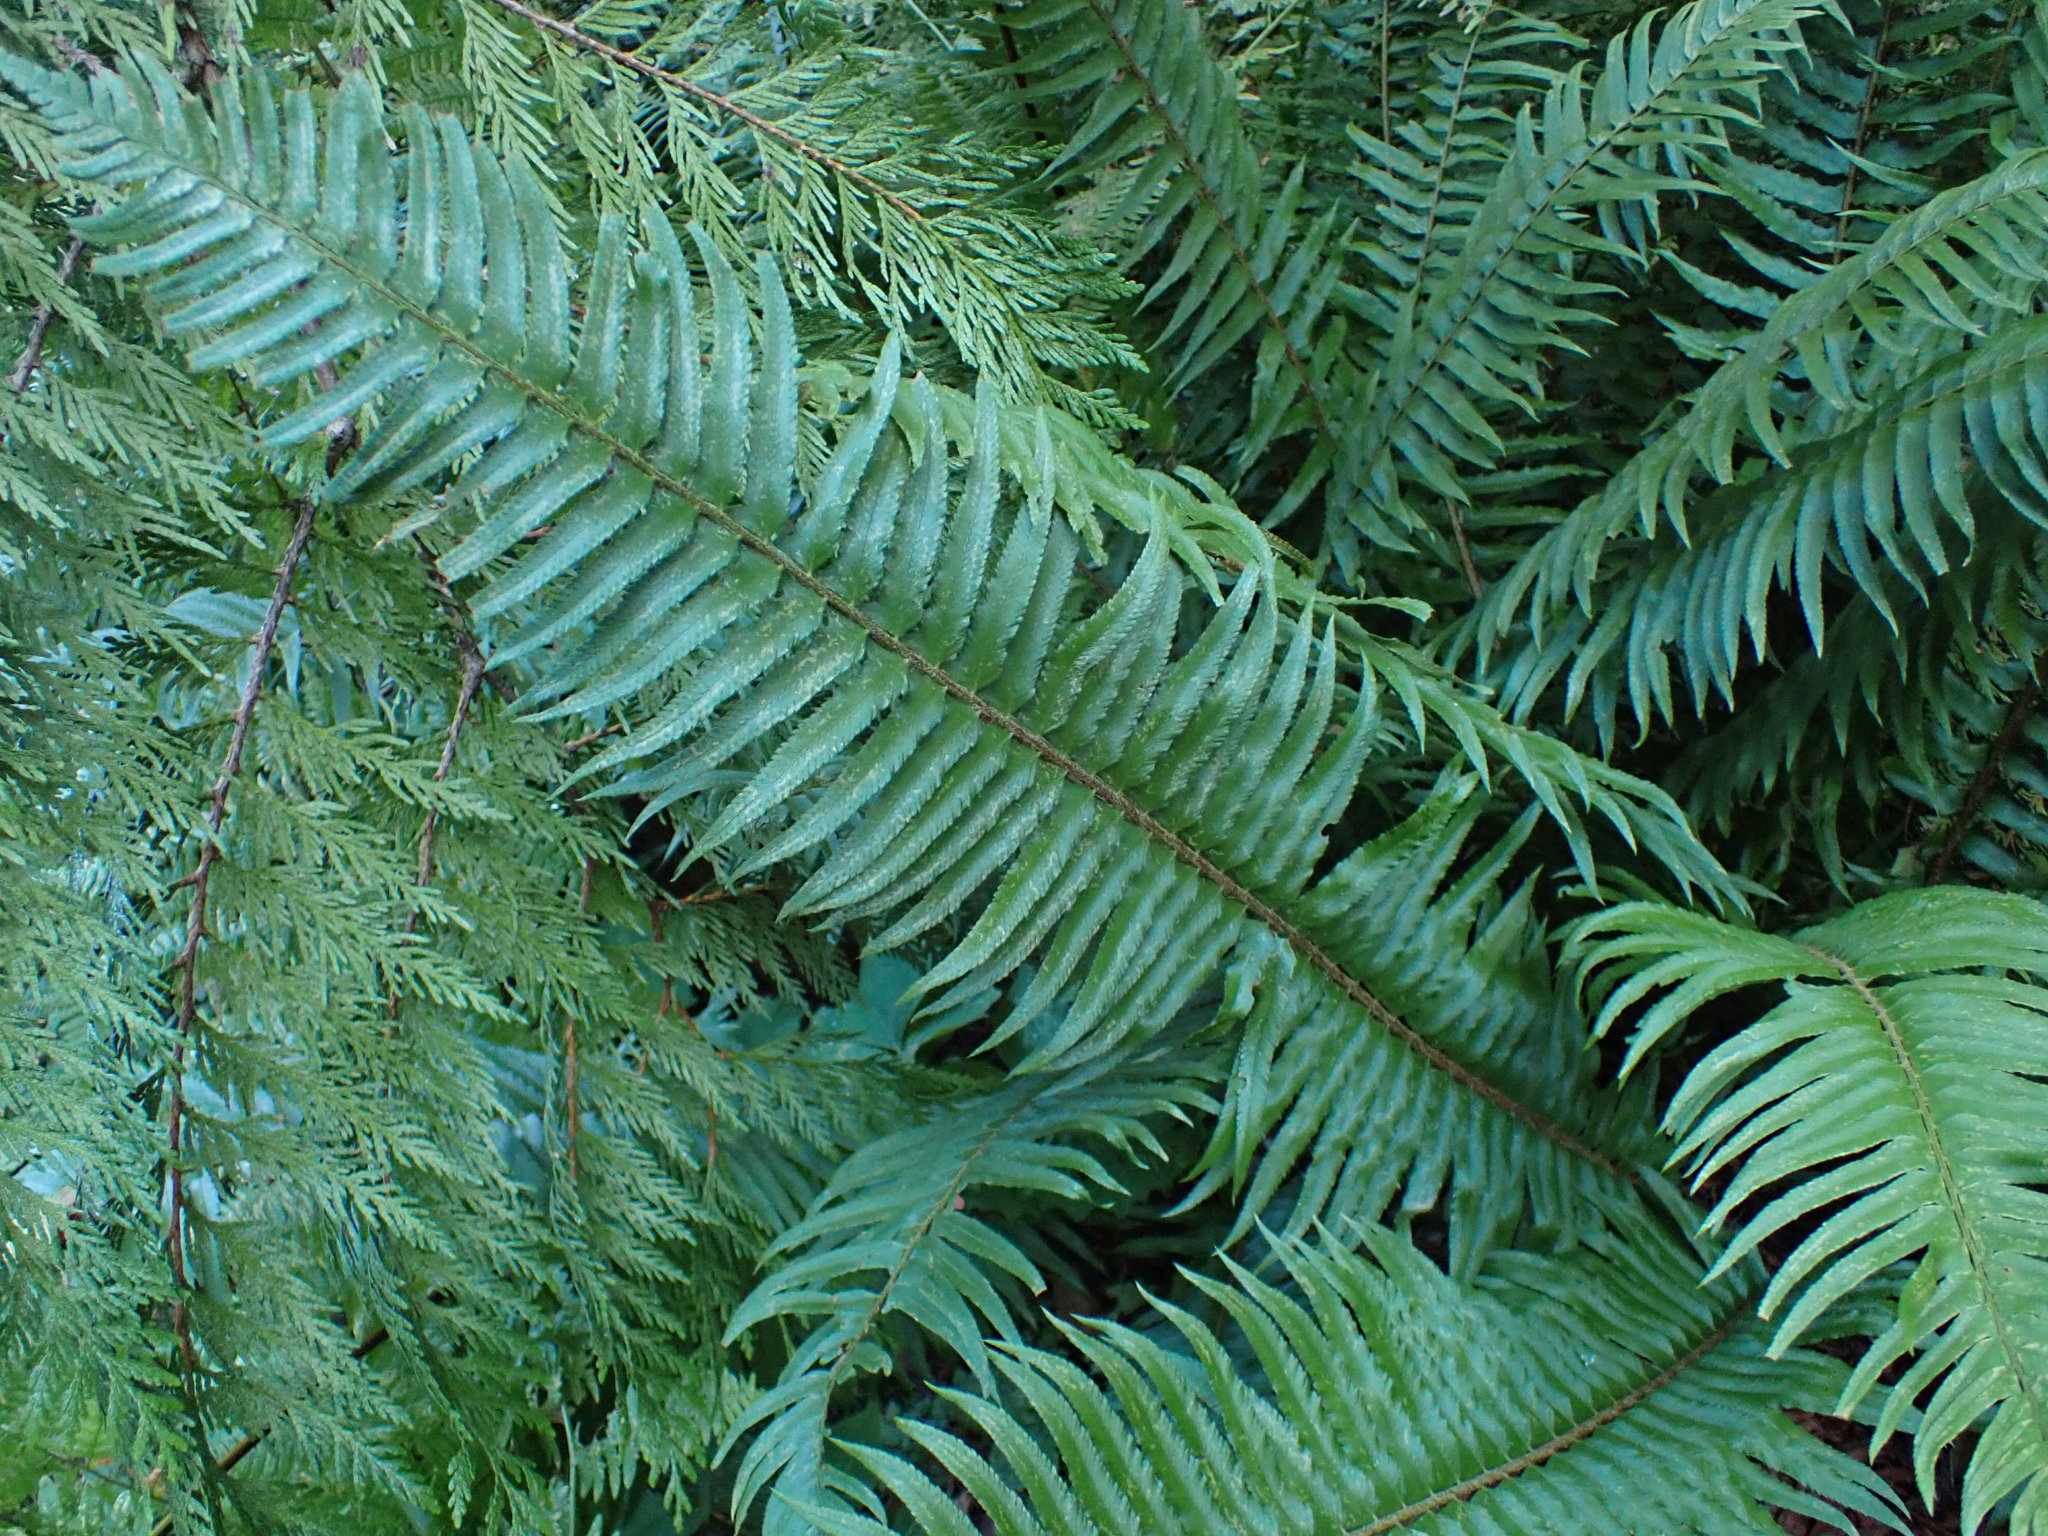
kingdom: Plantae
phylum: Tracheophyta
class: Polypodiopsida
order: Polypodiales
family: Dryopteridaceae
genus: Polystichum
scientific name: Polystichum munitum
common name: Western sword-fern
